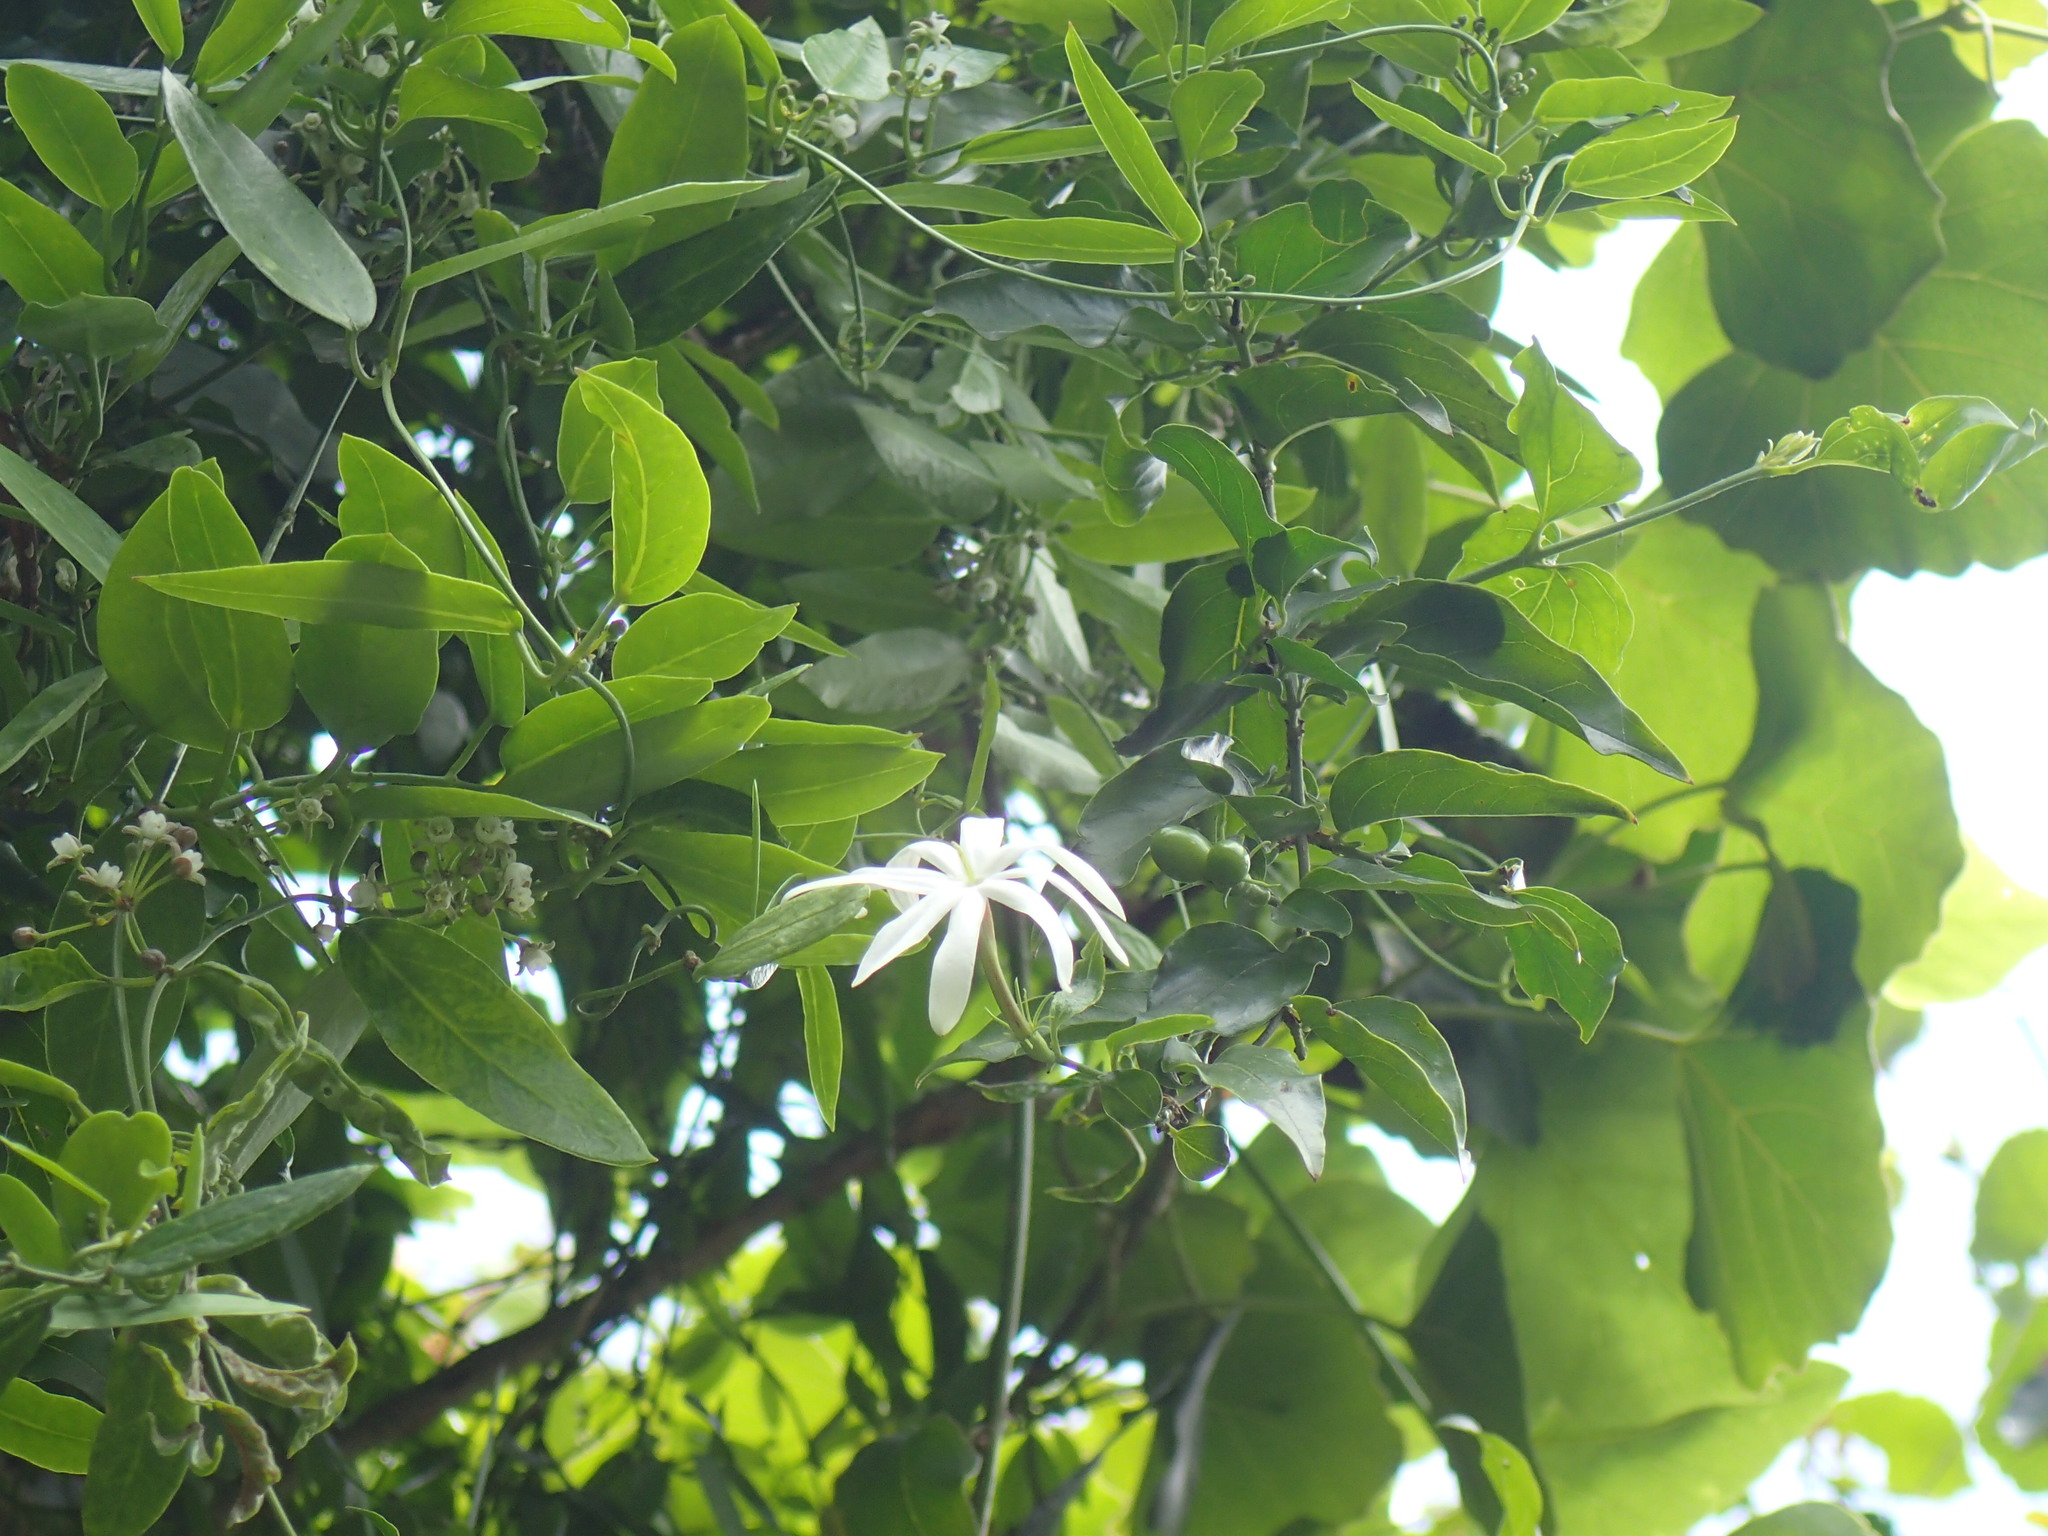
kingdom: Plantae
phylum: Tracheophyta
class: Magnoliopsida
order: Lamiales
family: Oleaceae
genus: Jasminum
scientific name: Jasminum multipartitum
